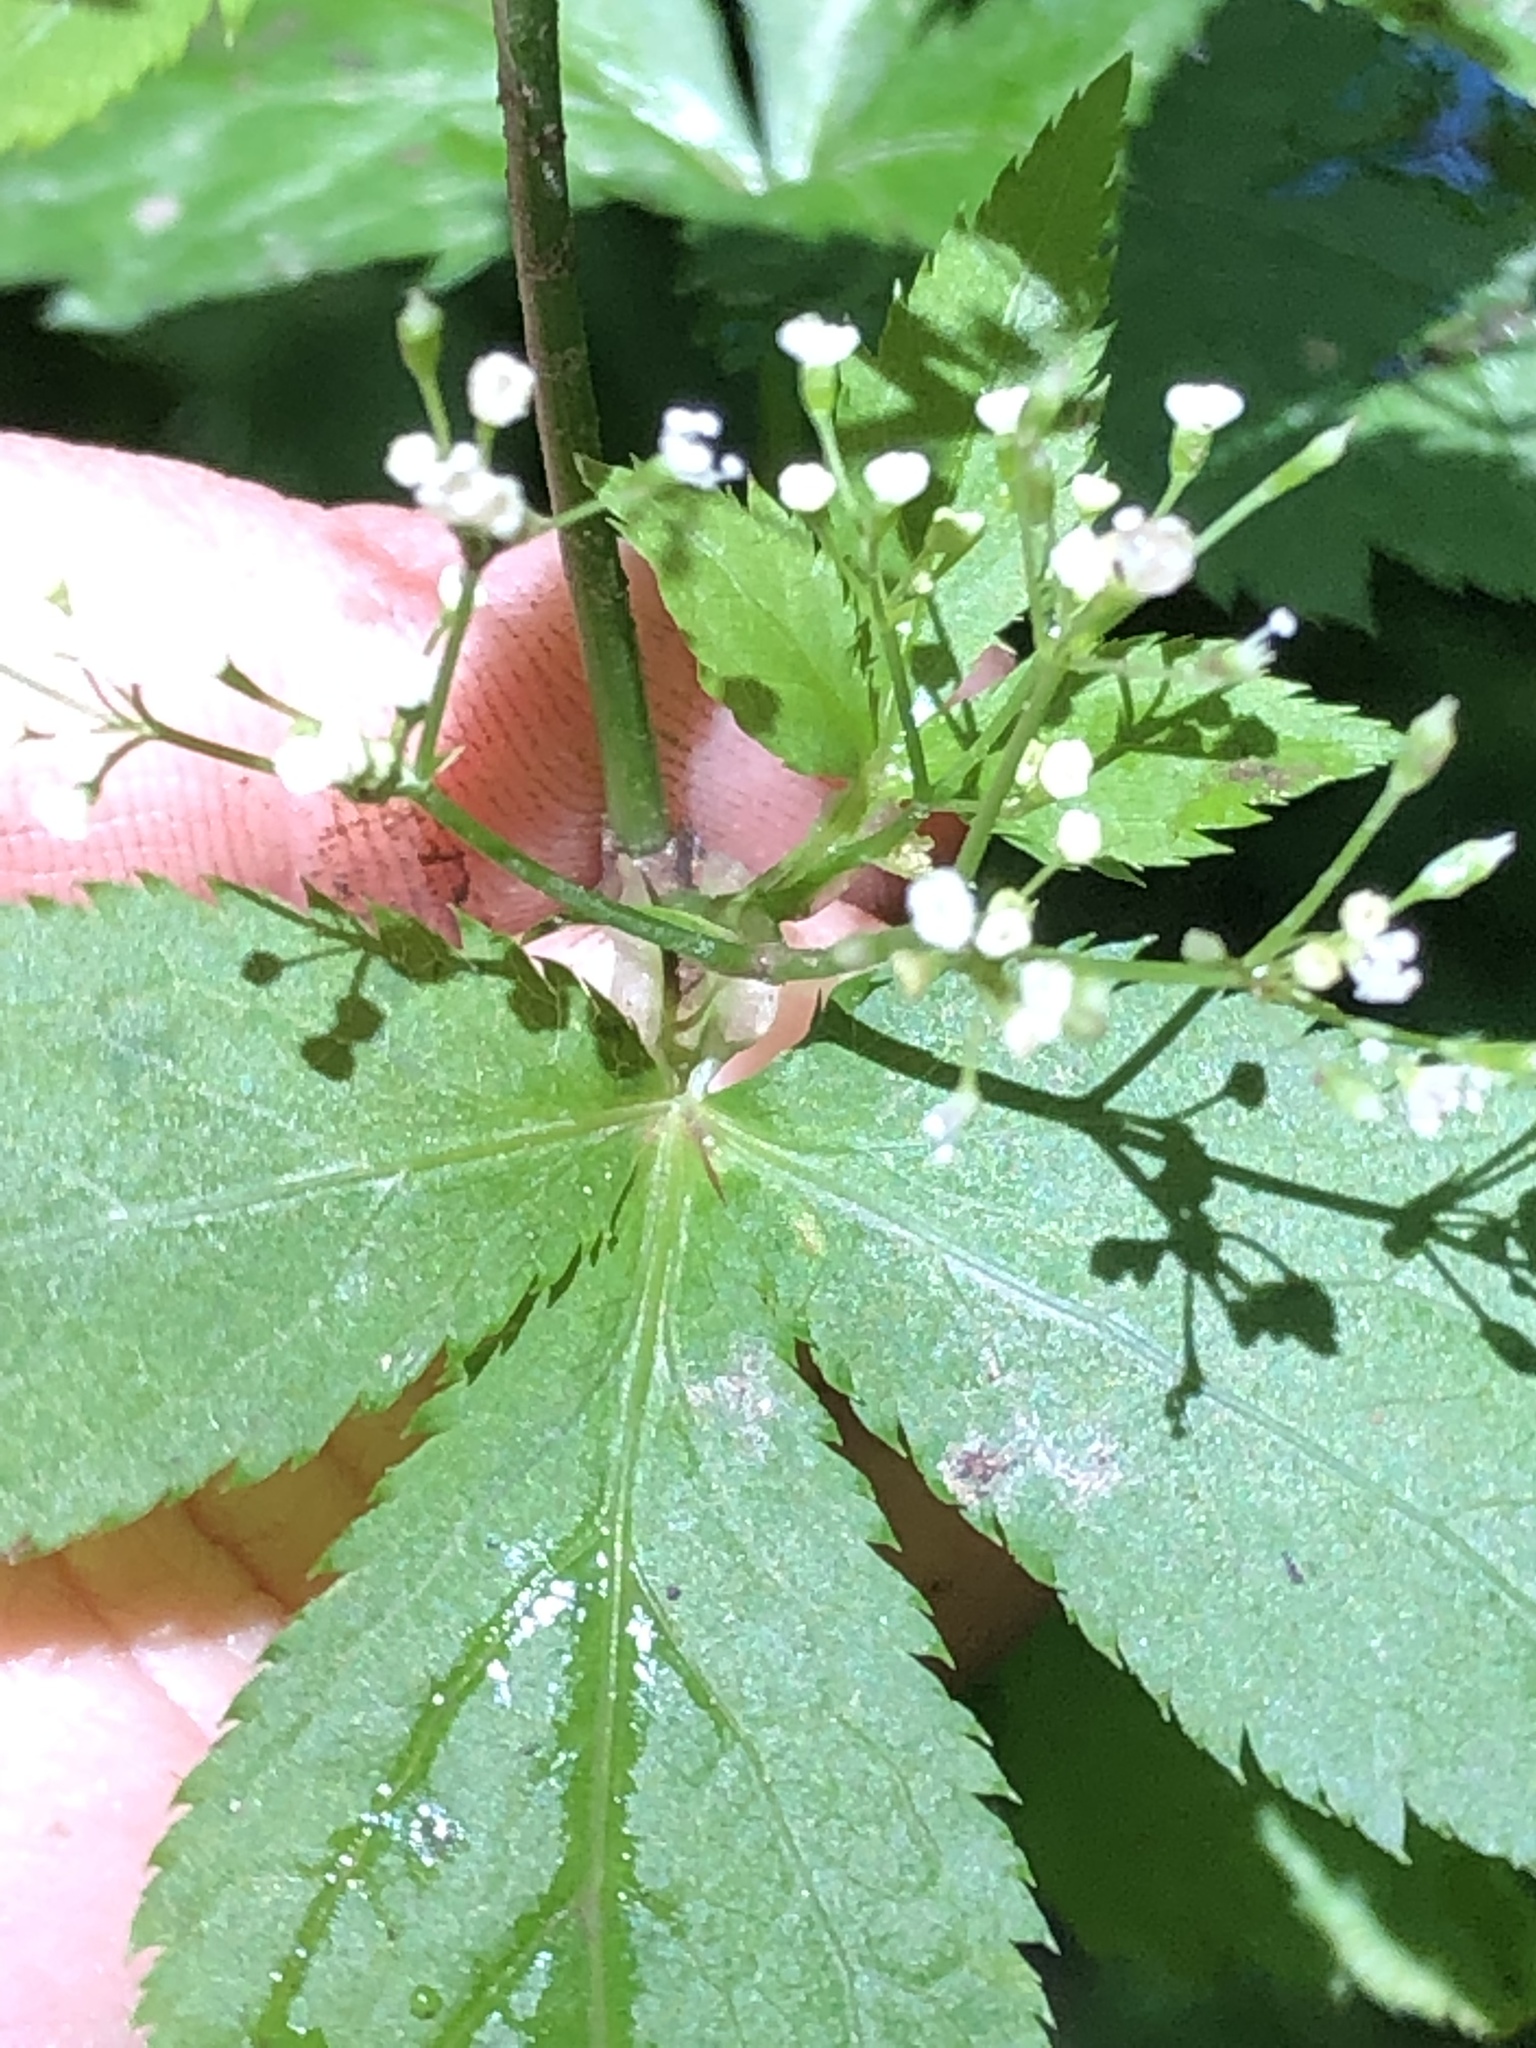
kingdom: Plantae
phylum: Tracheophyta
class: Magnoliopsida
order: Apiales
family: Apiaceae
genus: Cryptotaenia
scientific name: Cryptotaenia canadensis
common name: Honewort
